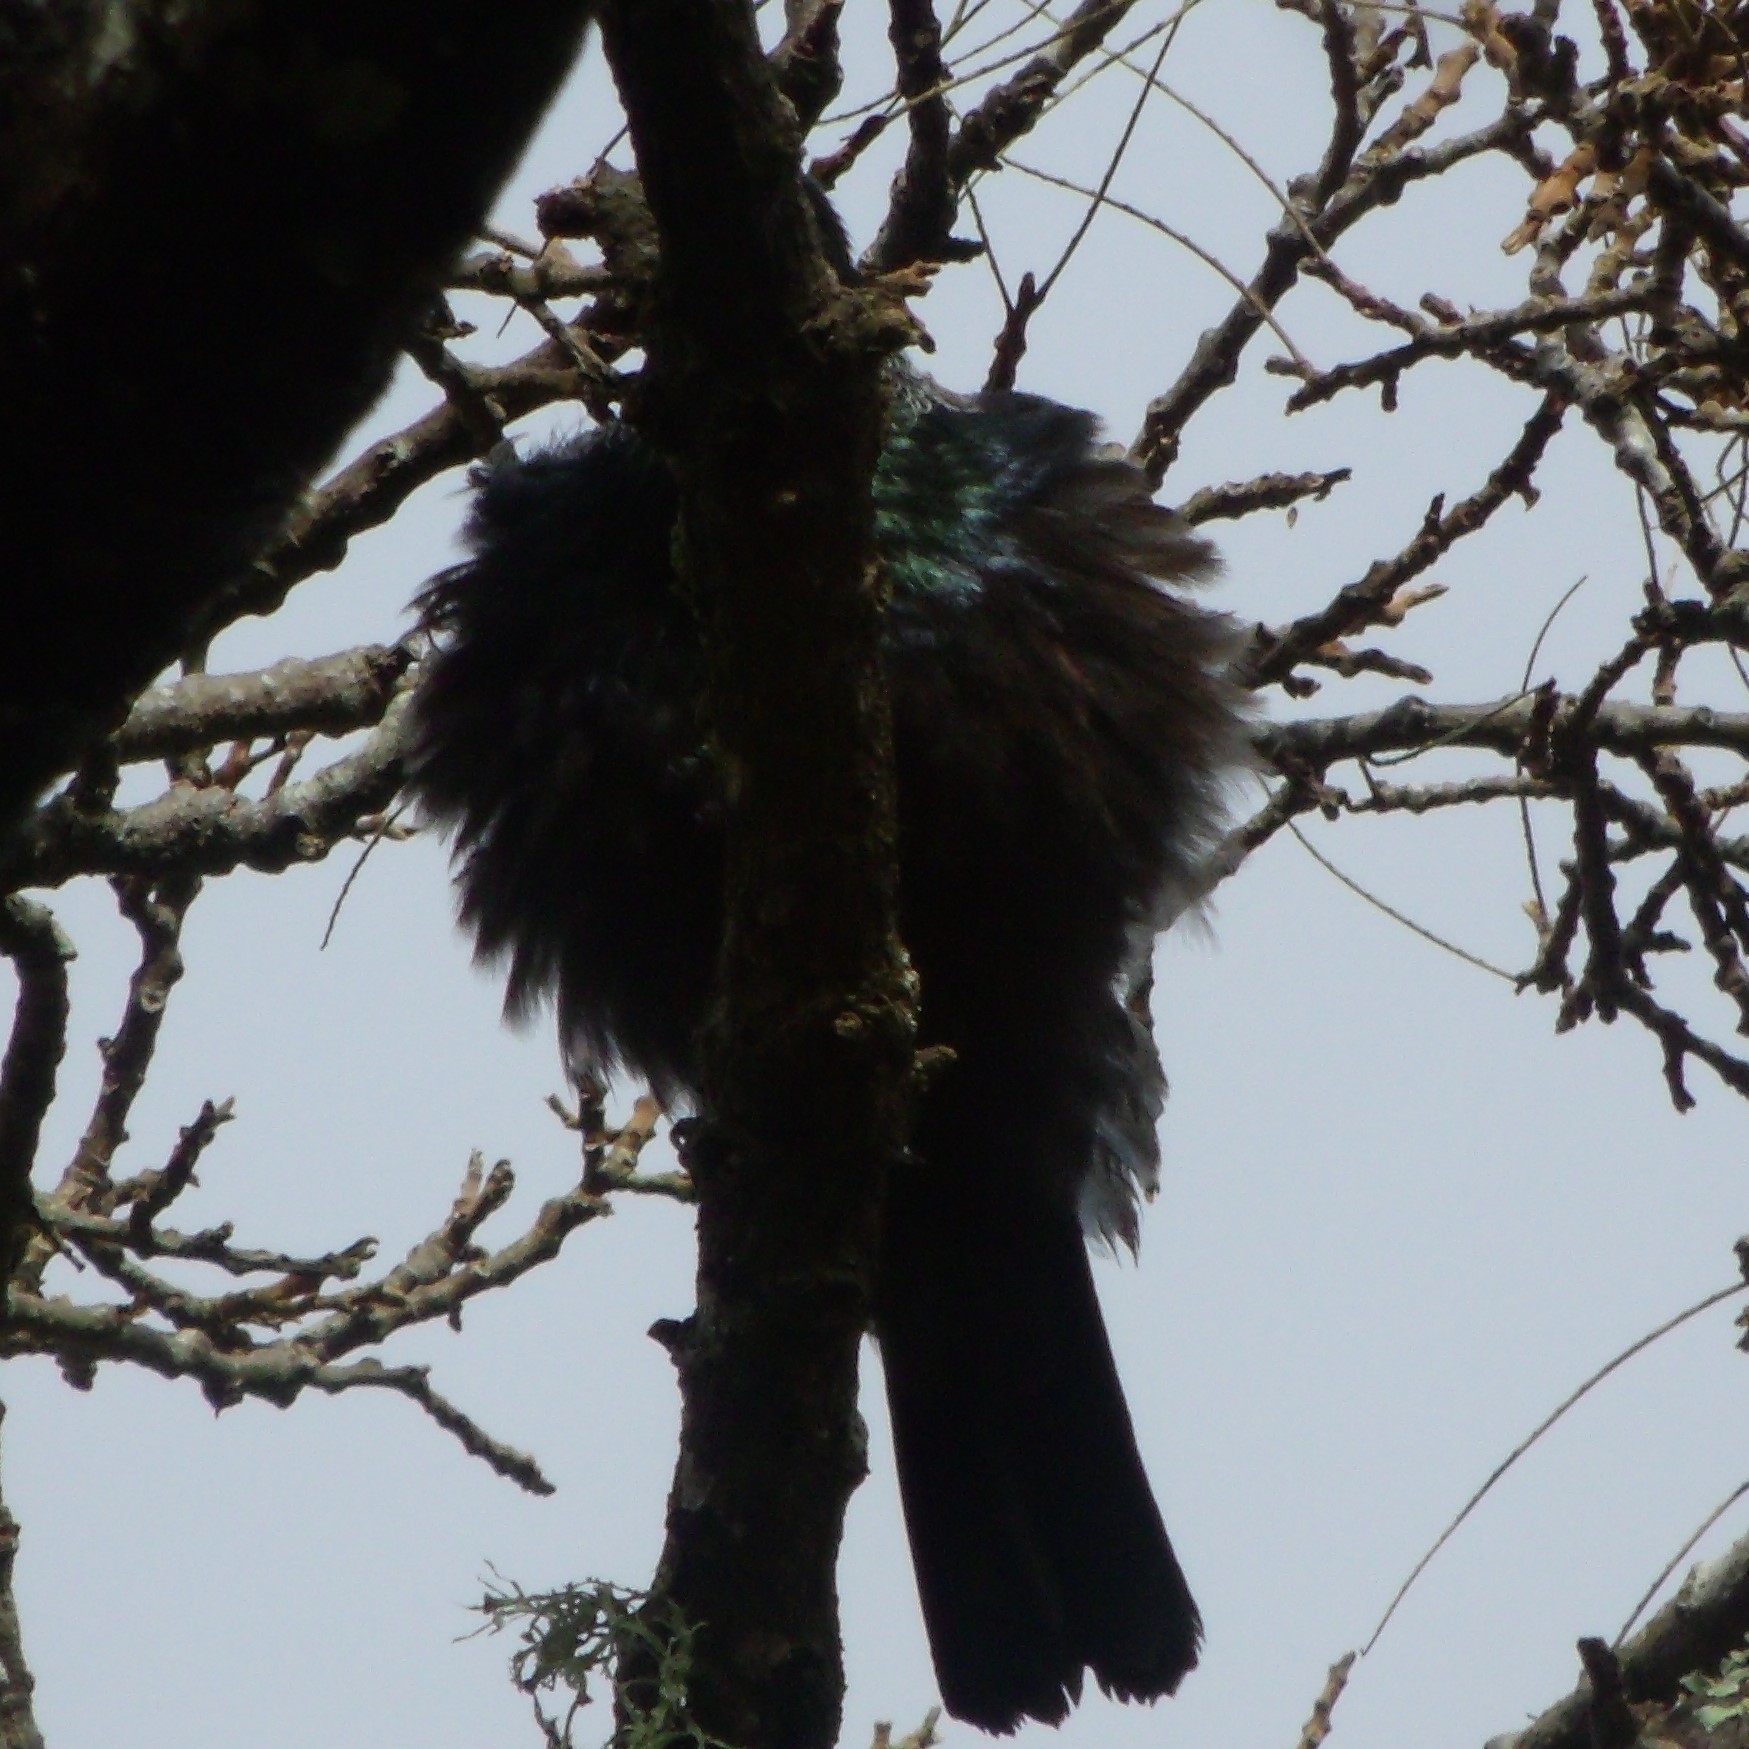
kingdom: Animalia
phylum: Chordata
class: Aves
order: Passeriformes
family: Meliphagidae
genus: Prosthemadera
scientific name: Prosthemadera novaeseelandiae
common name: Tui
